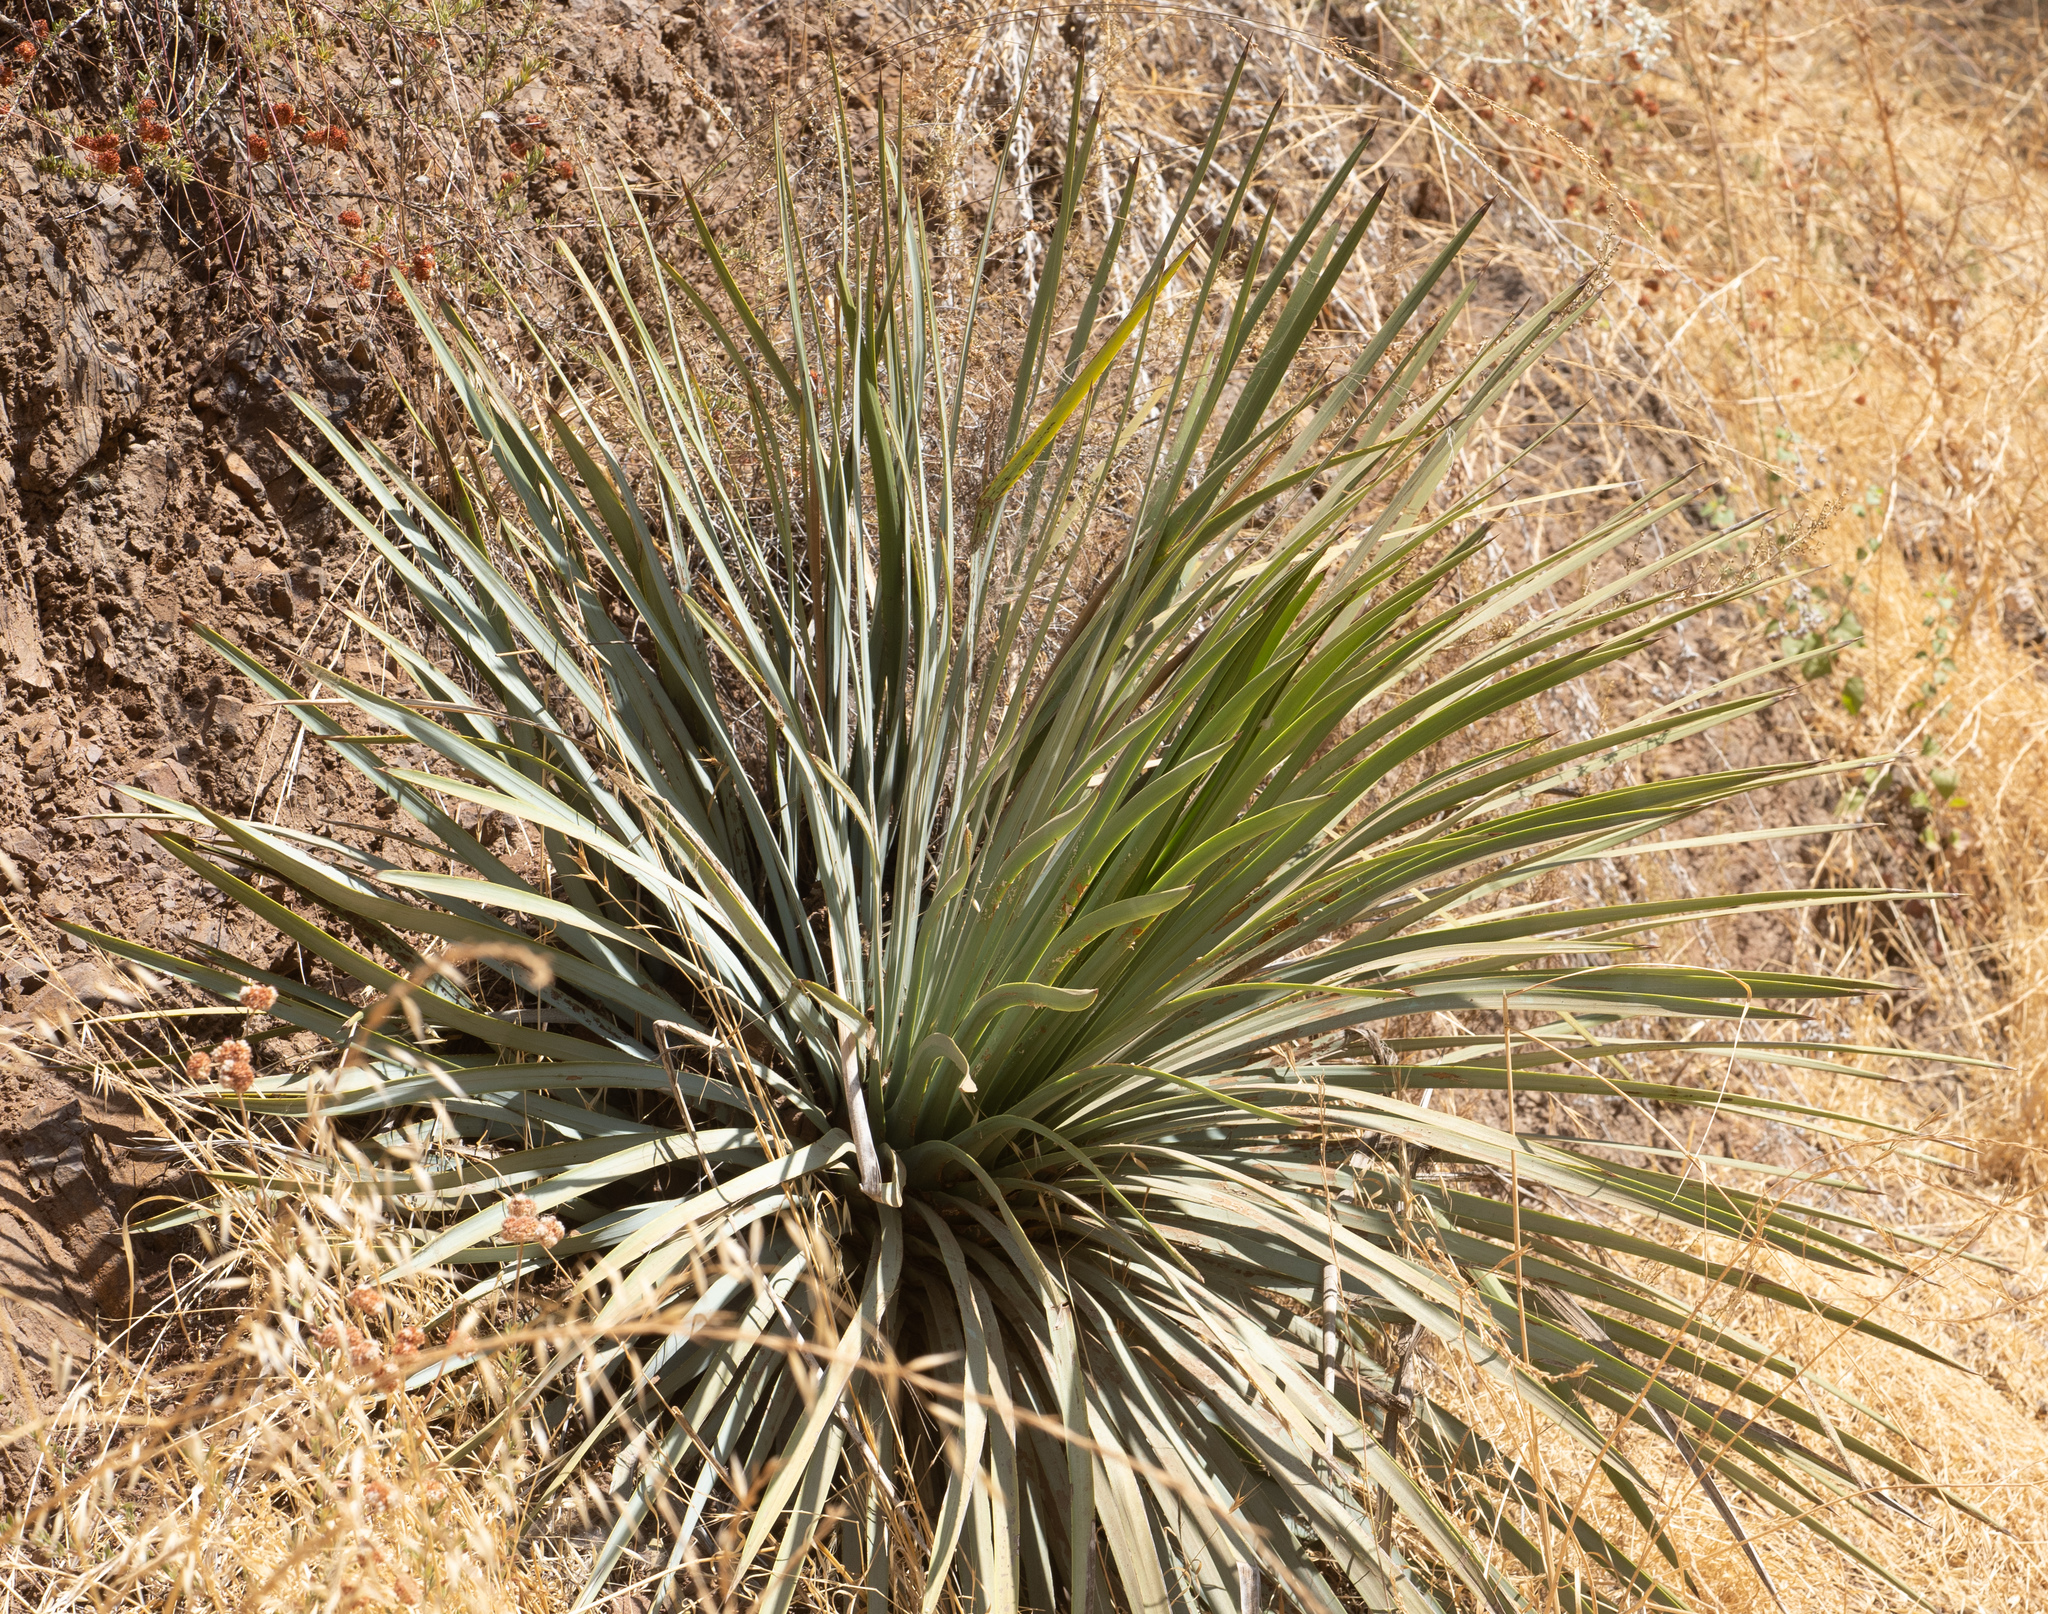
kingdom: Plantae
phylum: Tracheophyta
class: Liliopsida
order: Asparagales
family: Asparagaceae
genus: Hesperoyucca
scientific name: Hesperoyucca whipplei
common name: Our lord's-candle
